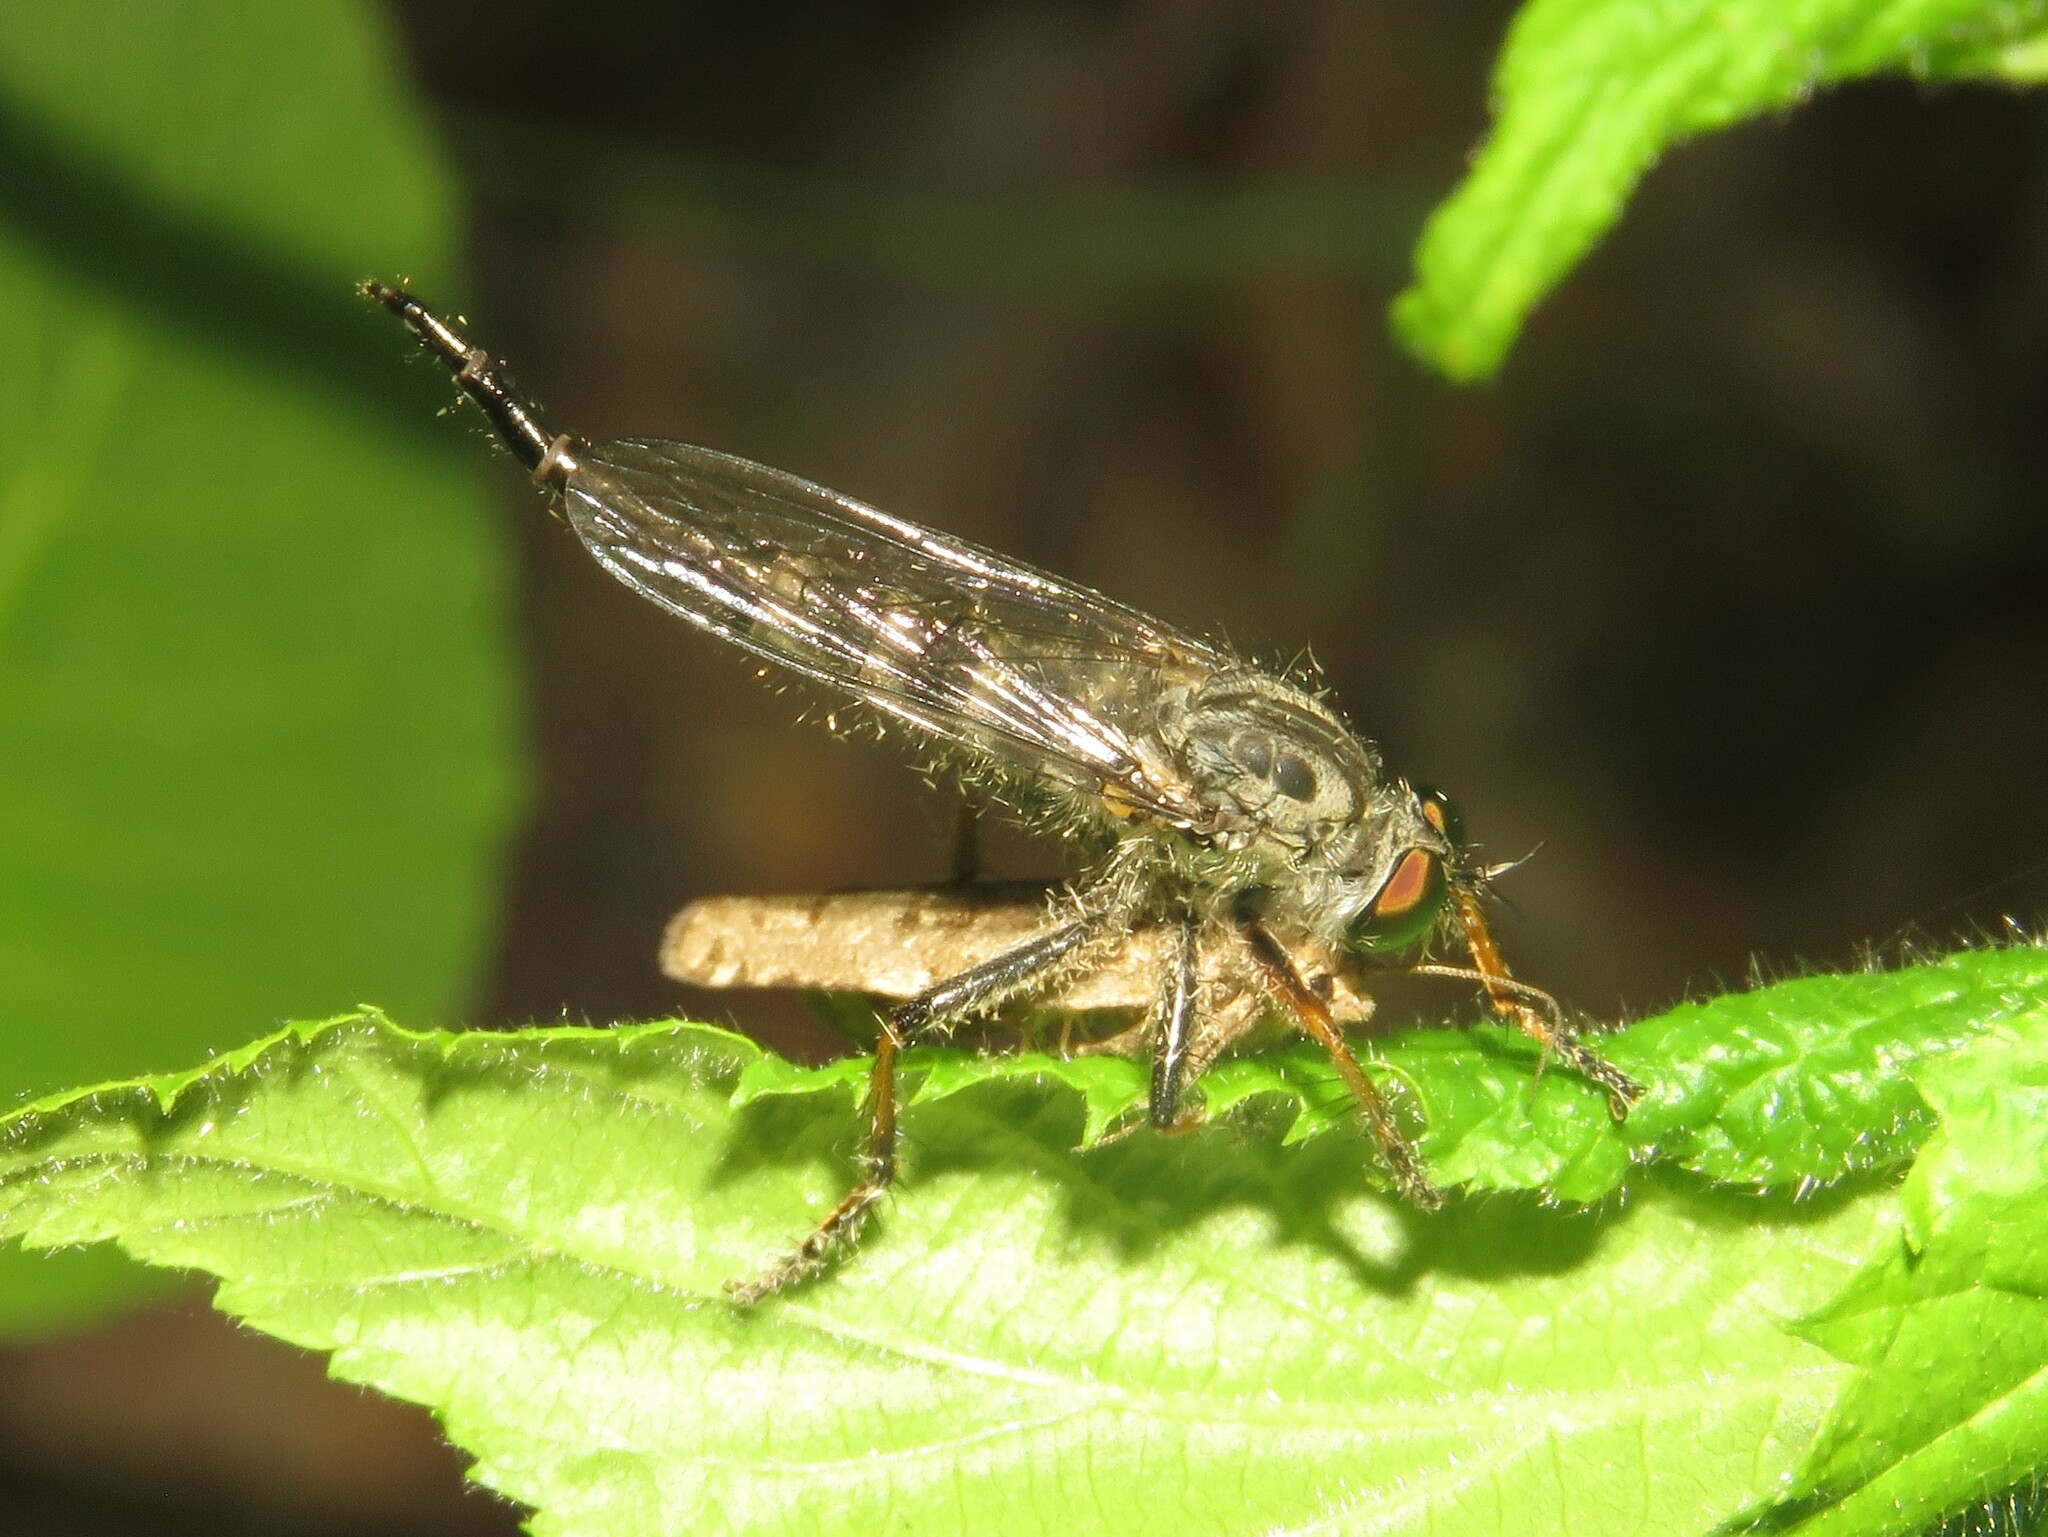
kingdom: Animalia
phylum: Arthropoda
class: Insecta
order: Diptera
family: Asilidae
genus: Asilus
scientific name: Asilus flavofemoratus
